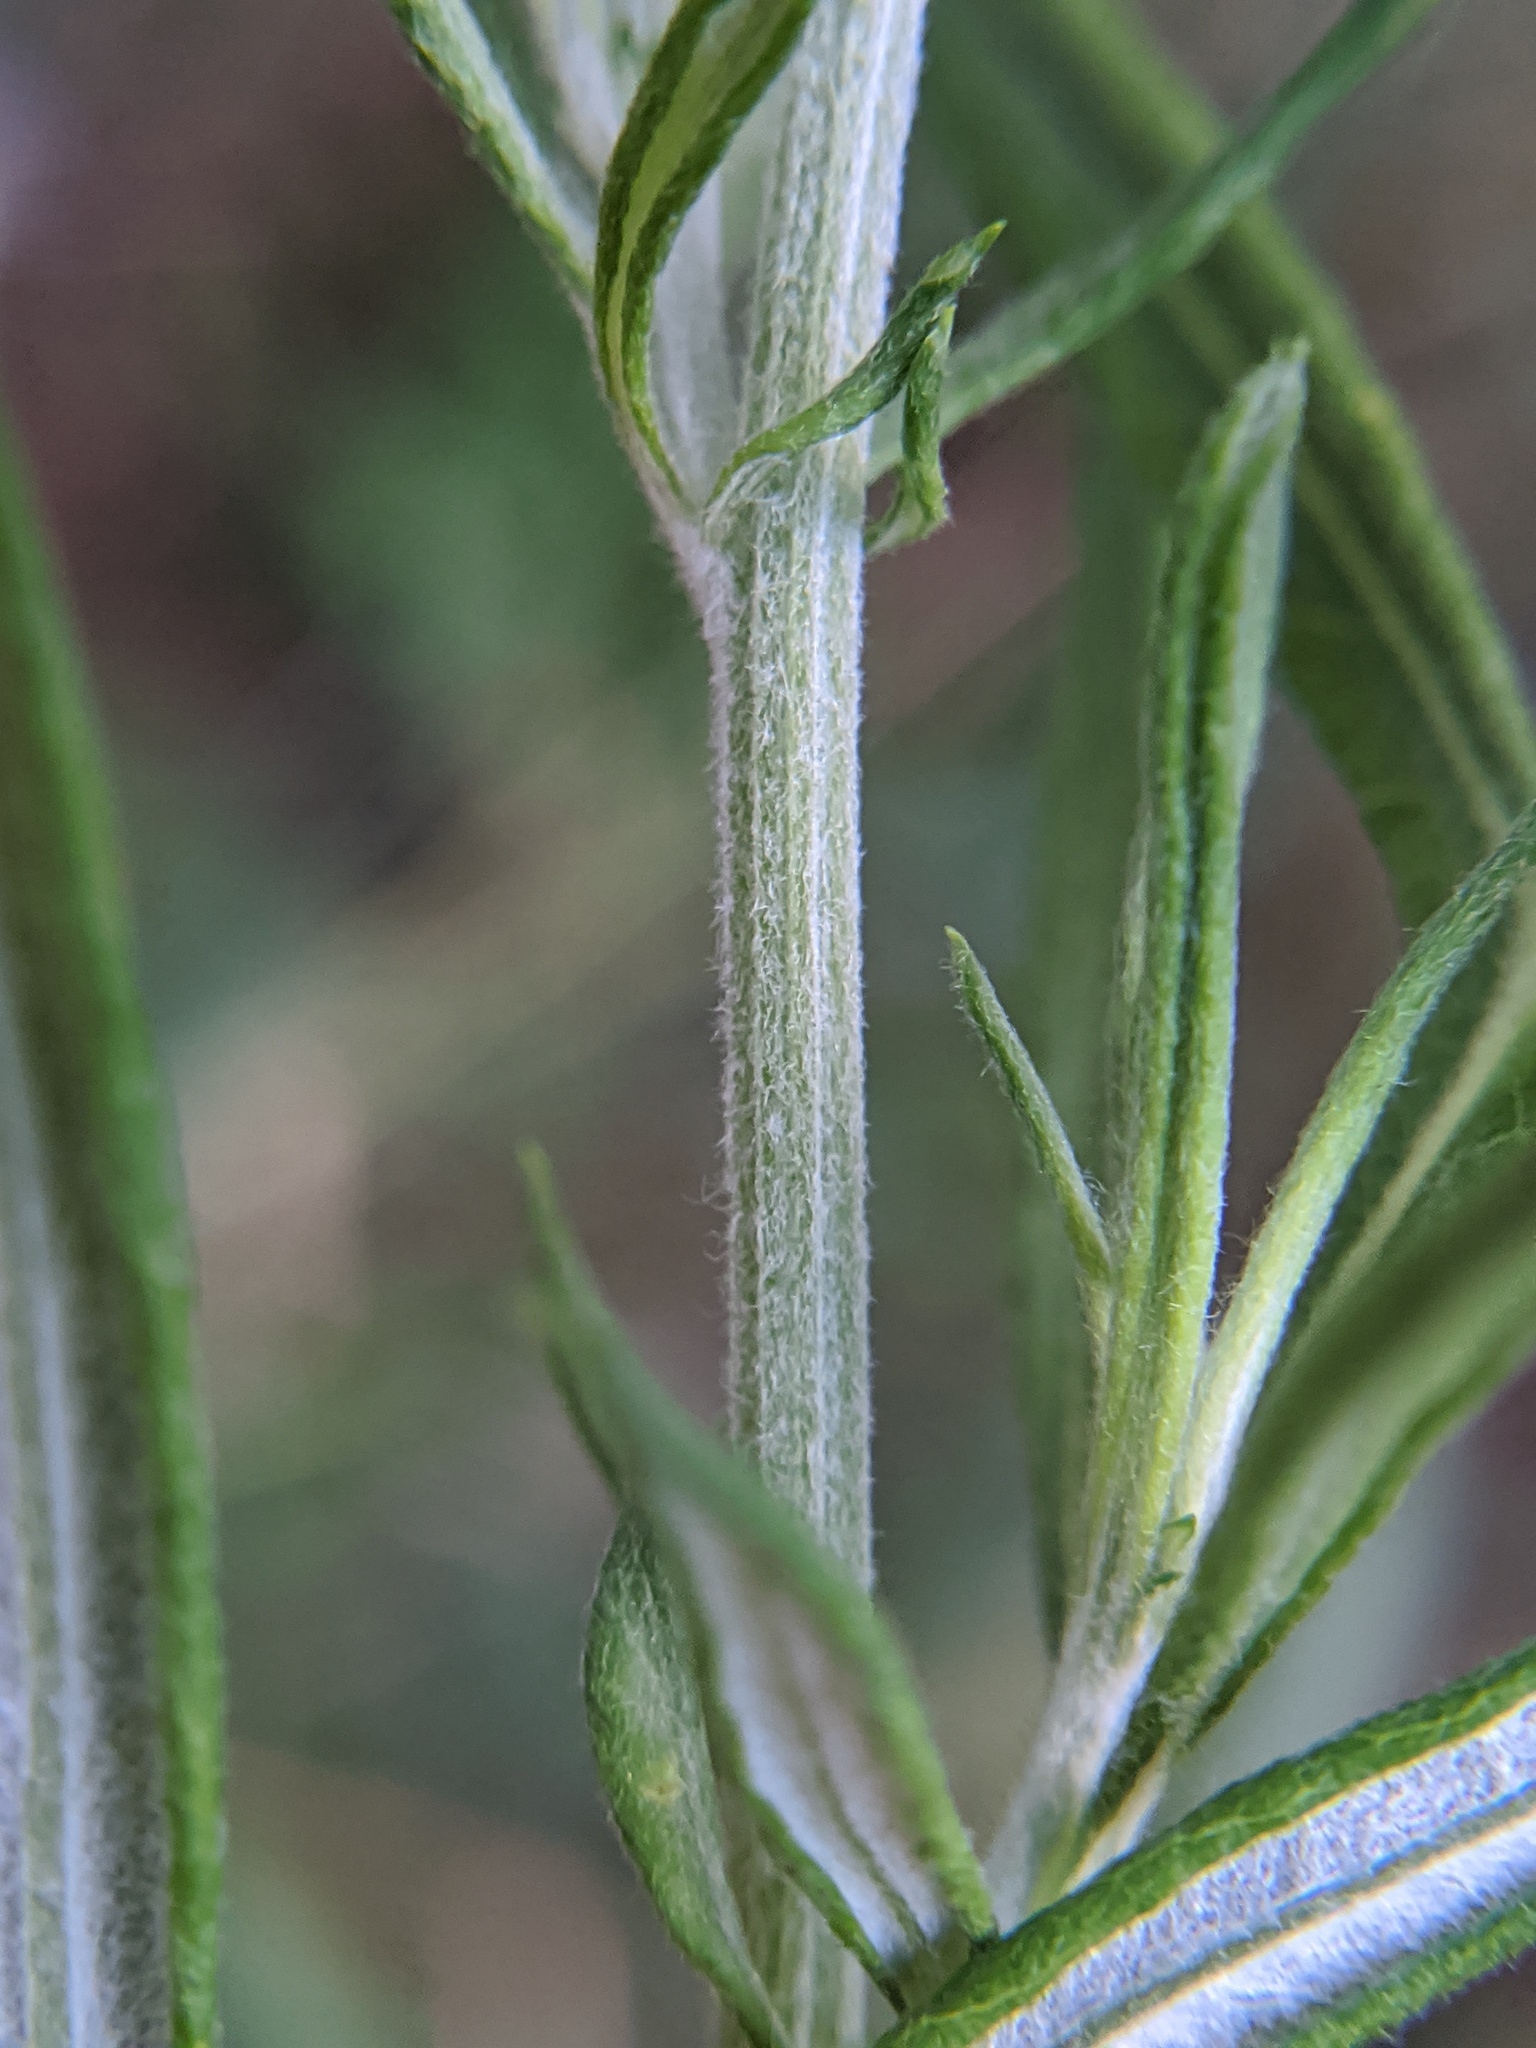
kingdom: Plantae
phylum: Tracheophyta
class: Magnoliopsida
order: Asterales
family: Asteraceae
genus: Artemisia
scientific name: Artemisia vulgaris
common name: Mugwort
